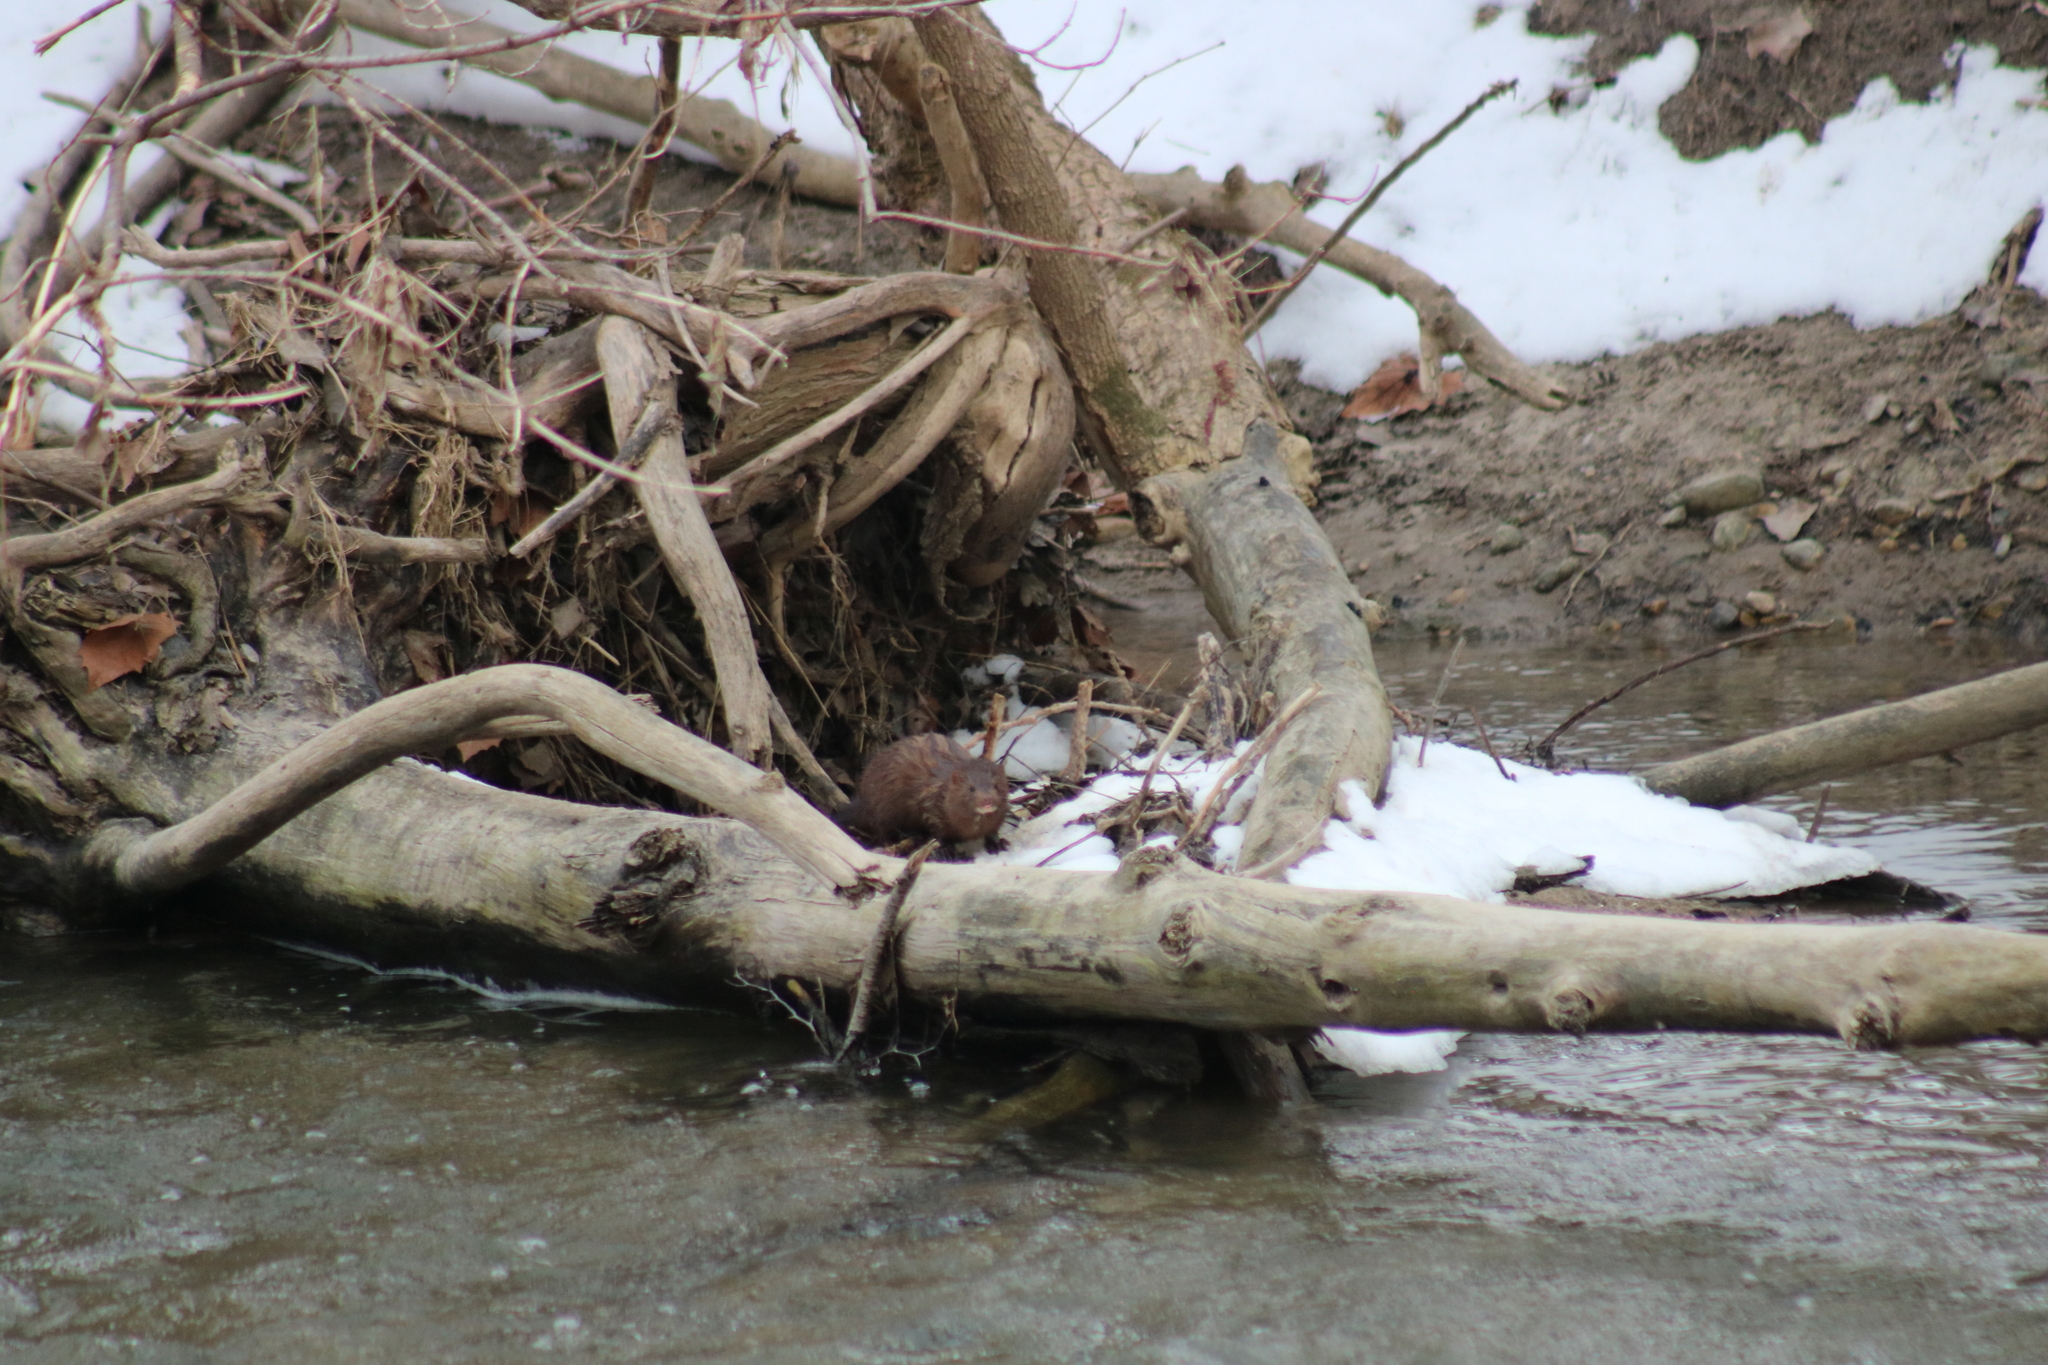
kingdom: Animalia
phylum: Chordata
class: Mammalia
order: Carnivora
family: Mustelidae
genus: Mustela
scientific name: Mustela
